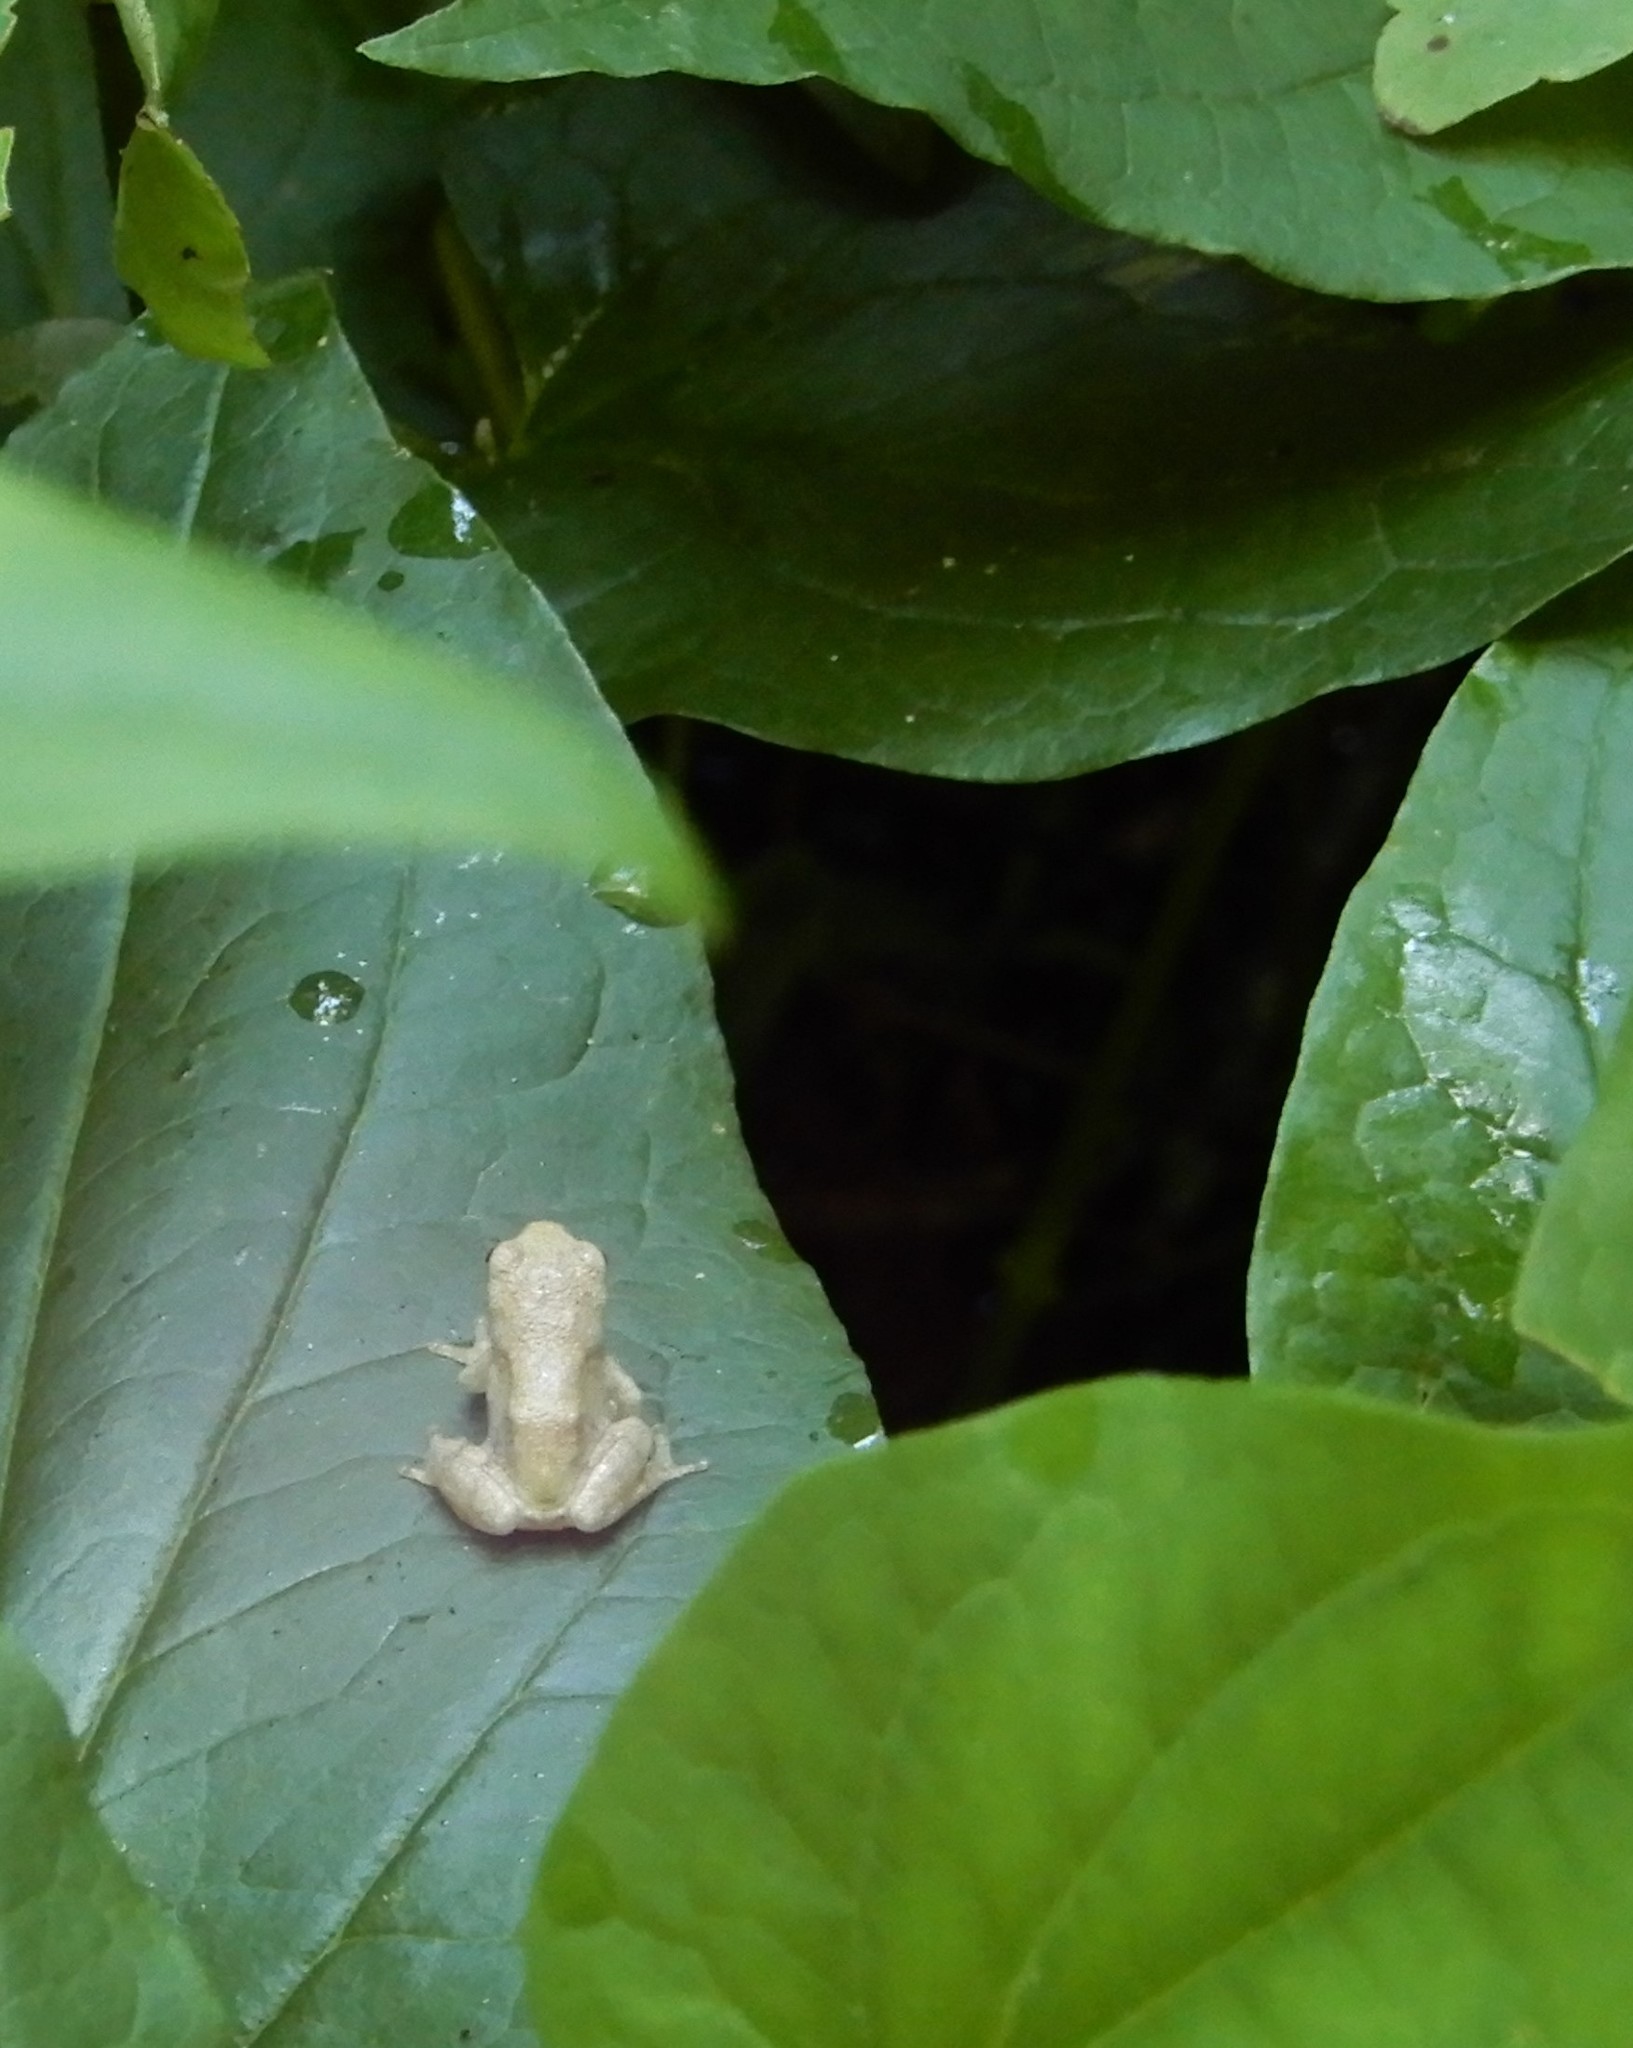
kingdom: Animalia
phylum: Chordata
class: Amphibia
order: Anura
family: Hylidae
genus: Dryophytes
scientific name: Dryophytes chrysoscelis
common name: Cope's gray treefrog
